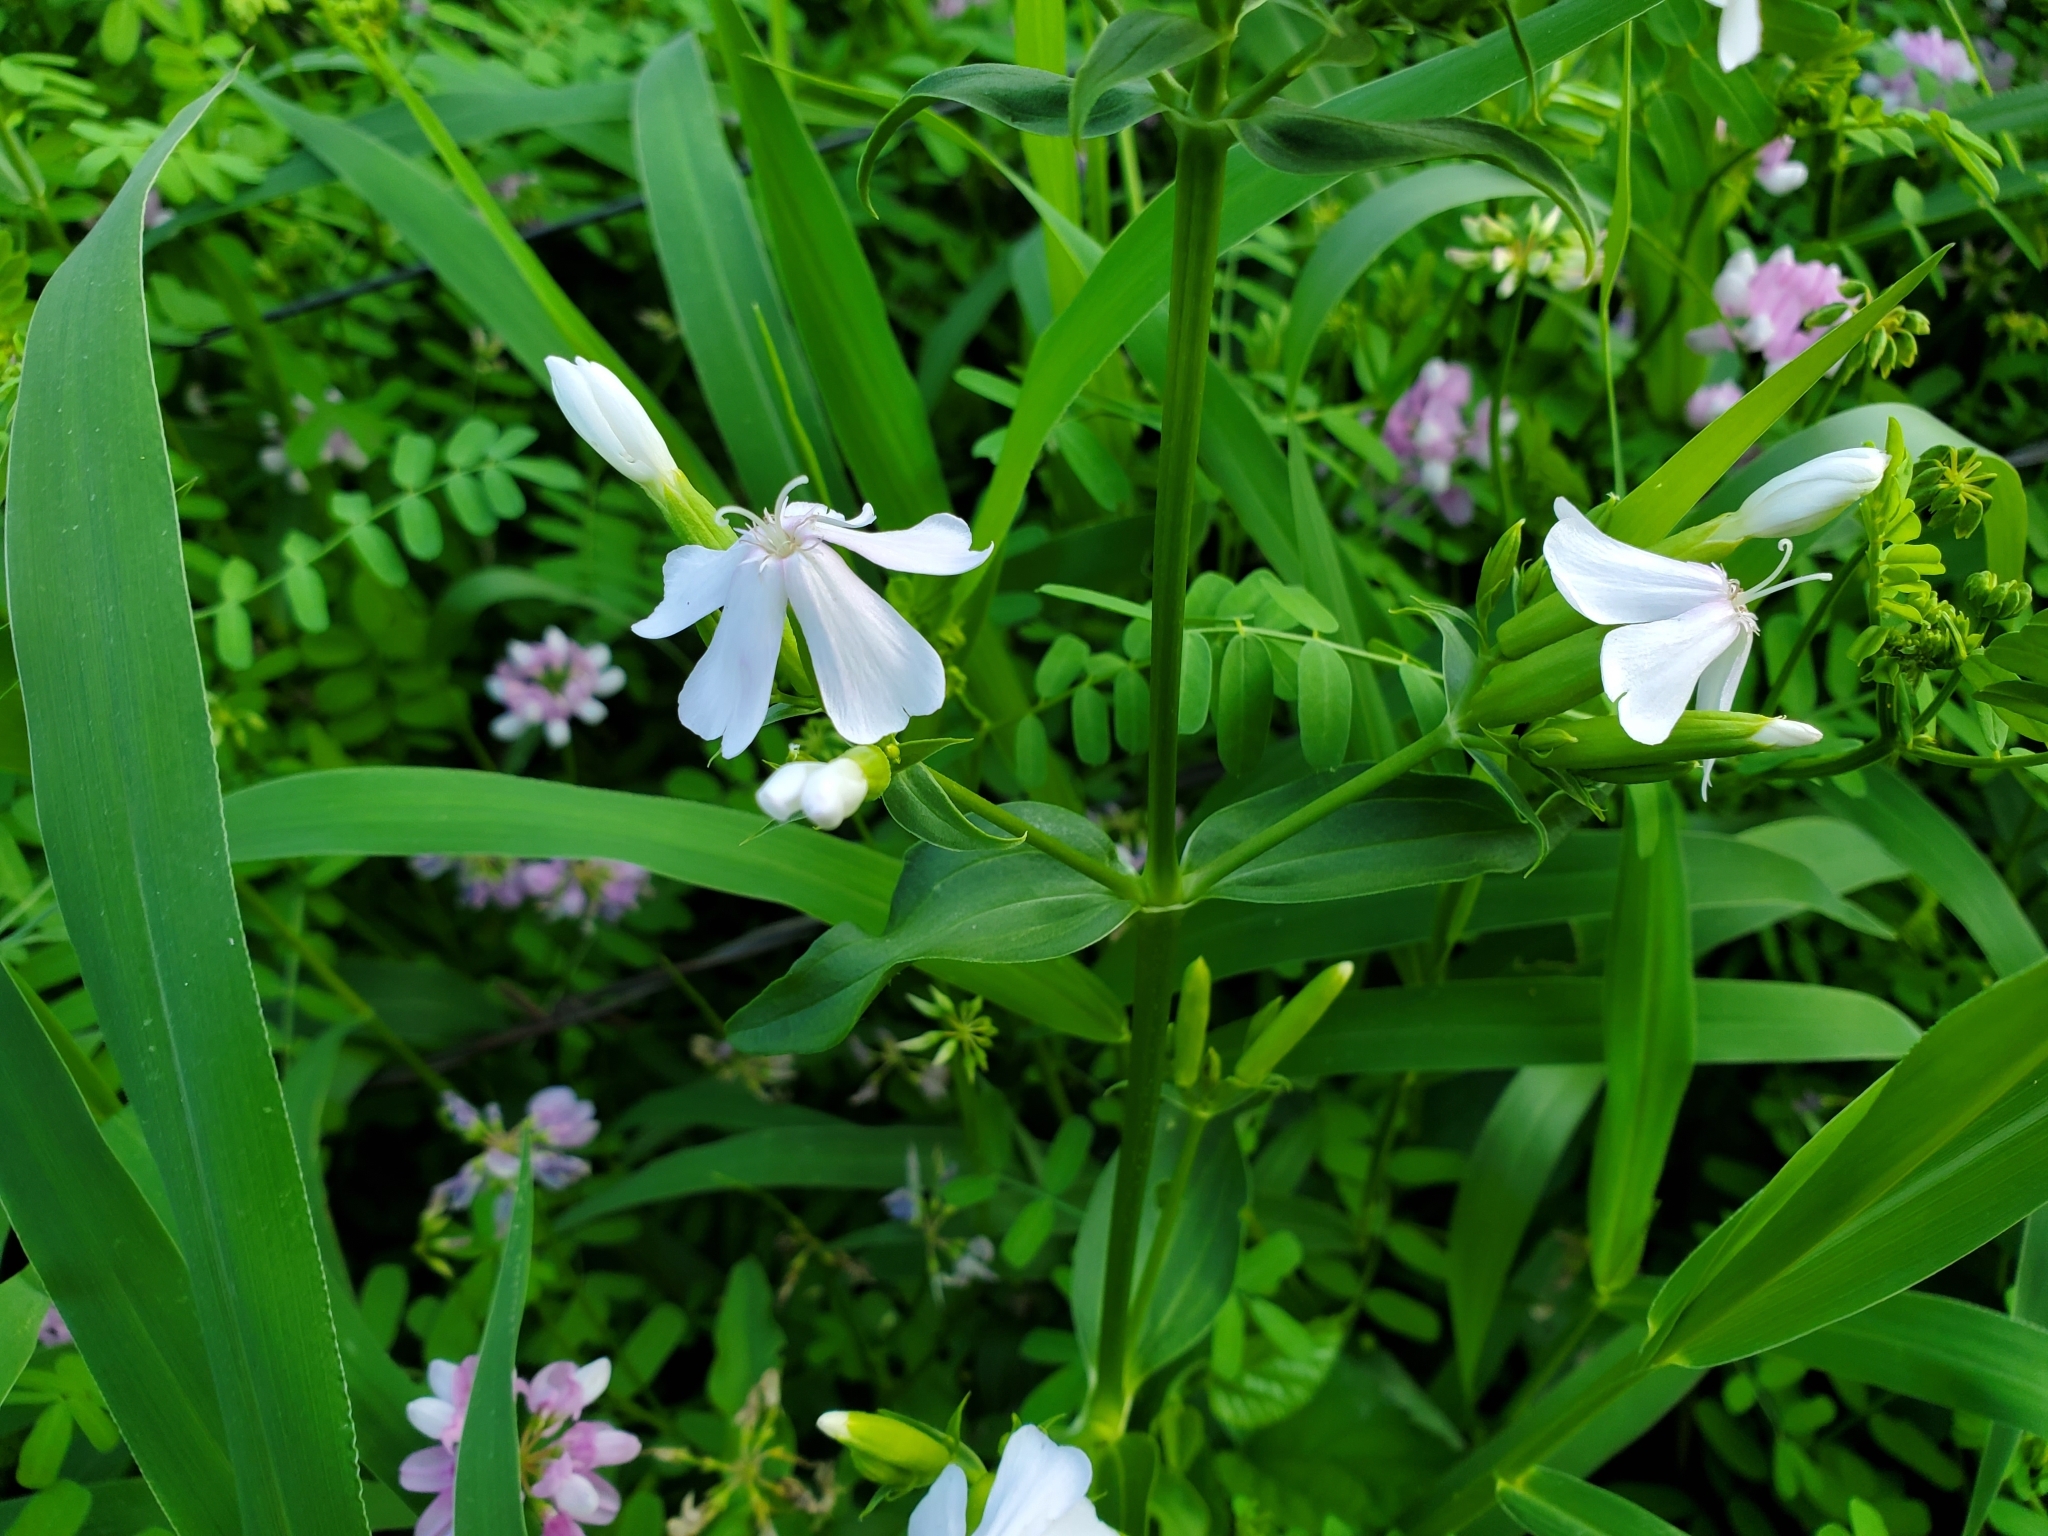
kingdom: Plantae
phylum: Tracheophyta
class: Magnoliopsida
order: Caryophyllales
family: Caryophyllaceae
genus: Saponaria
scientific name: Saponaria officinalis
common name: Soapwort
